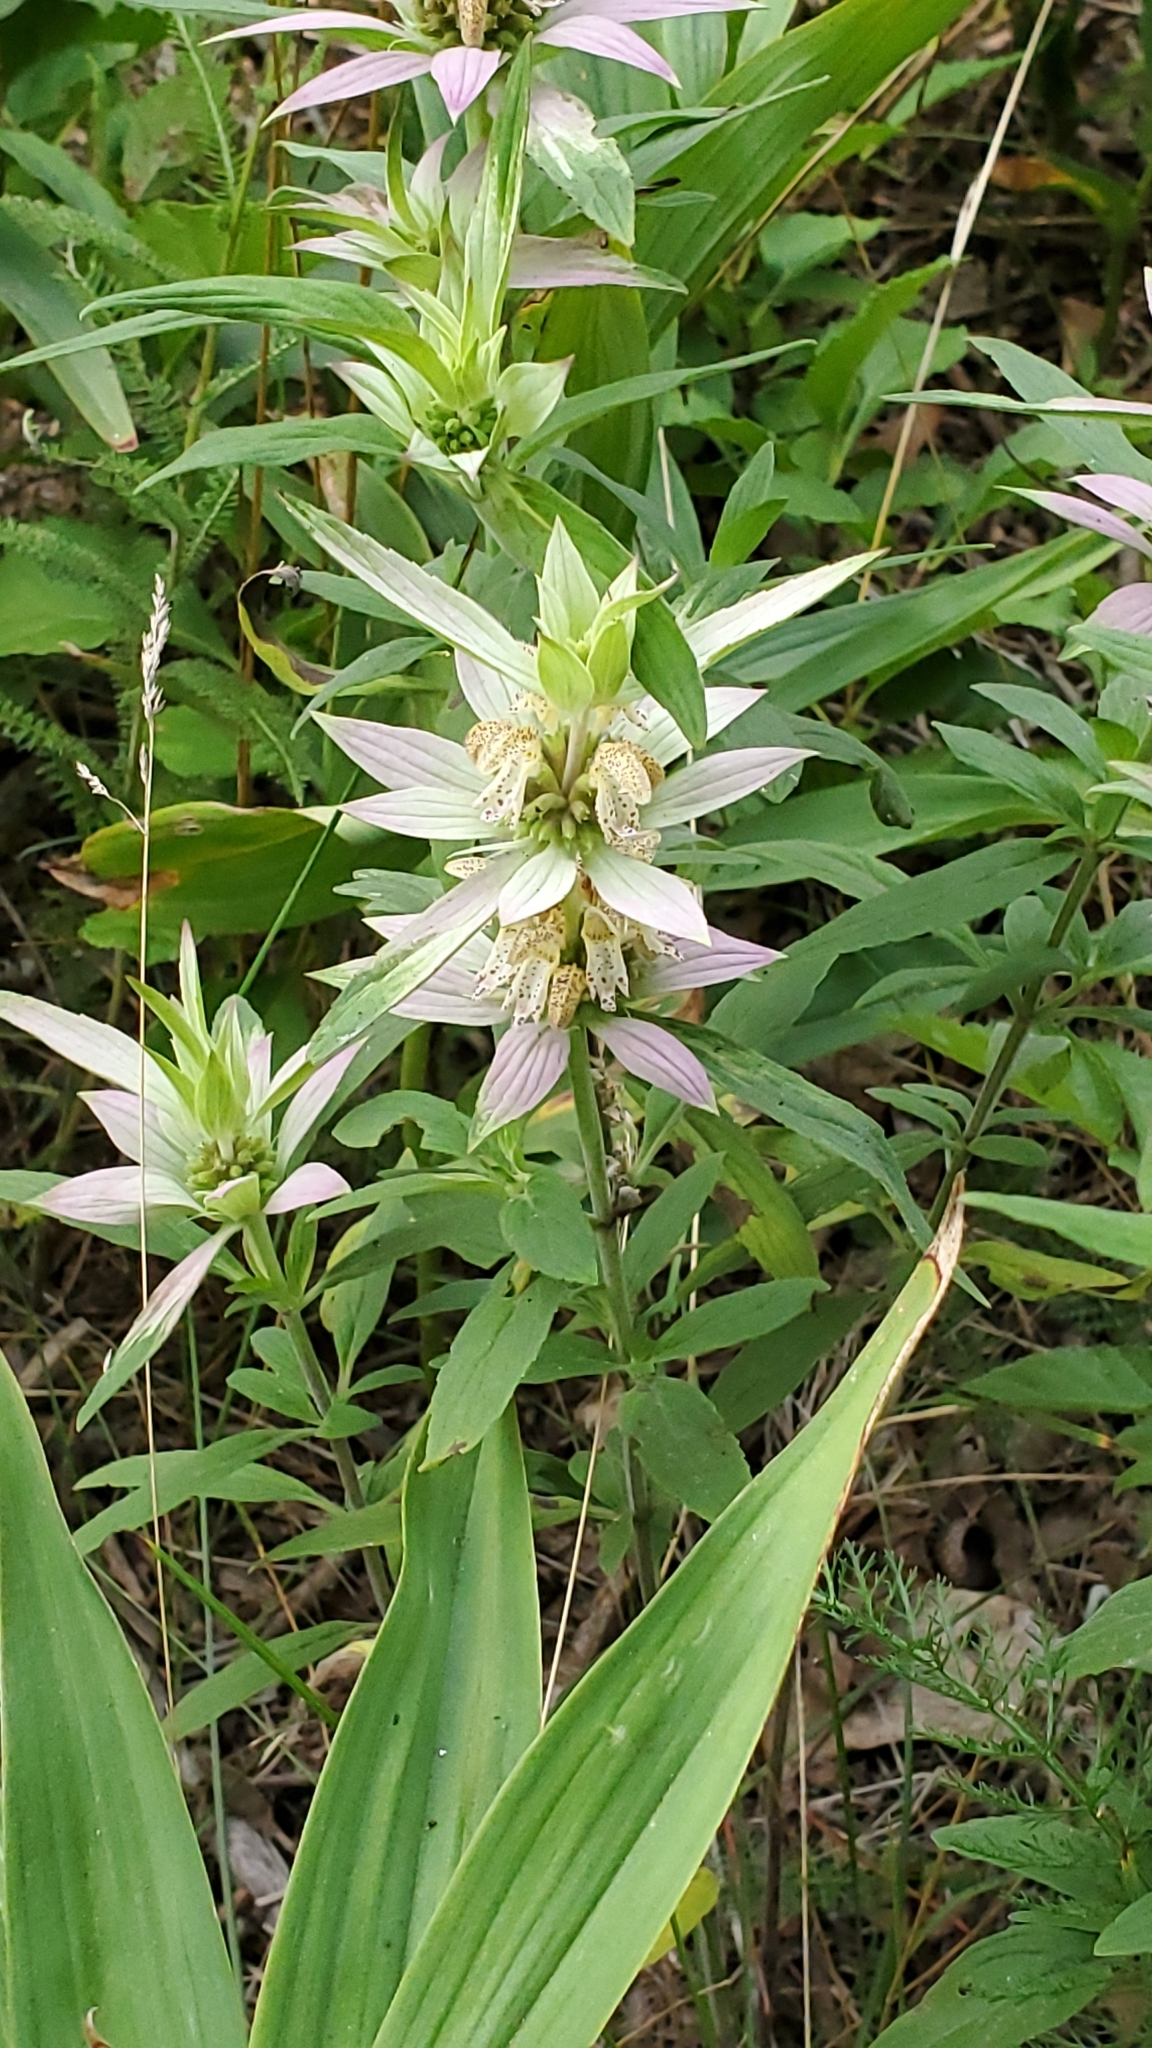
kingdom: Plantae
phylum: Tracheophyta
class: Magnoliopsida
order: Lamiales
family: Lamiaceae
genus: Monarda
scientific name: Monarda punctata
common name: Dotted monarda
